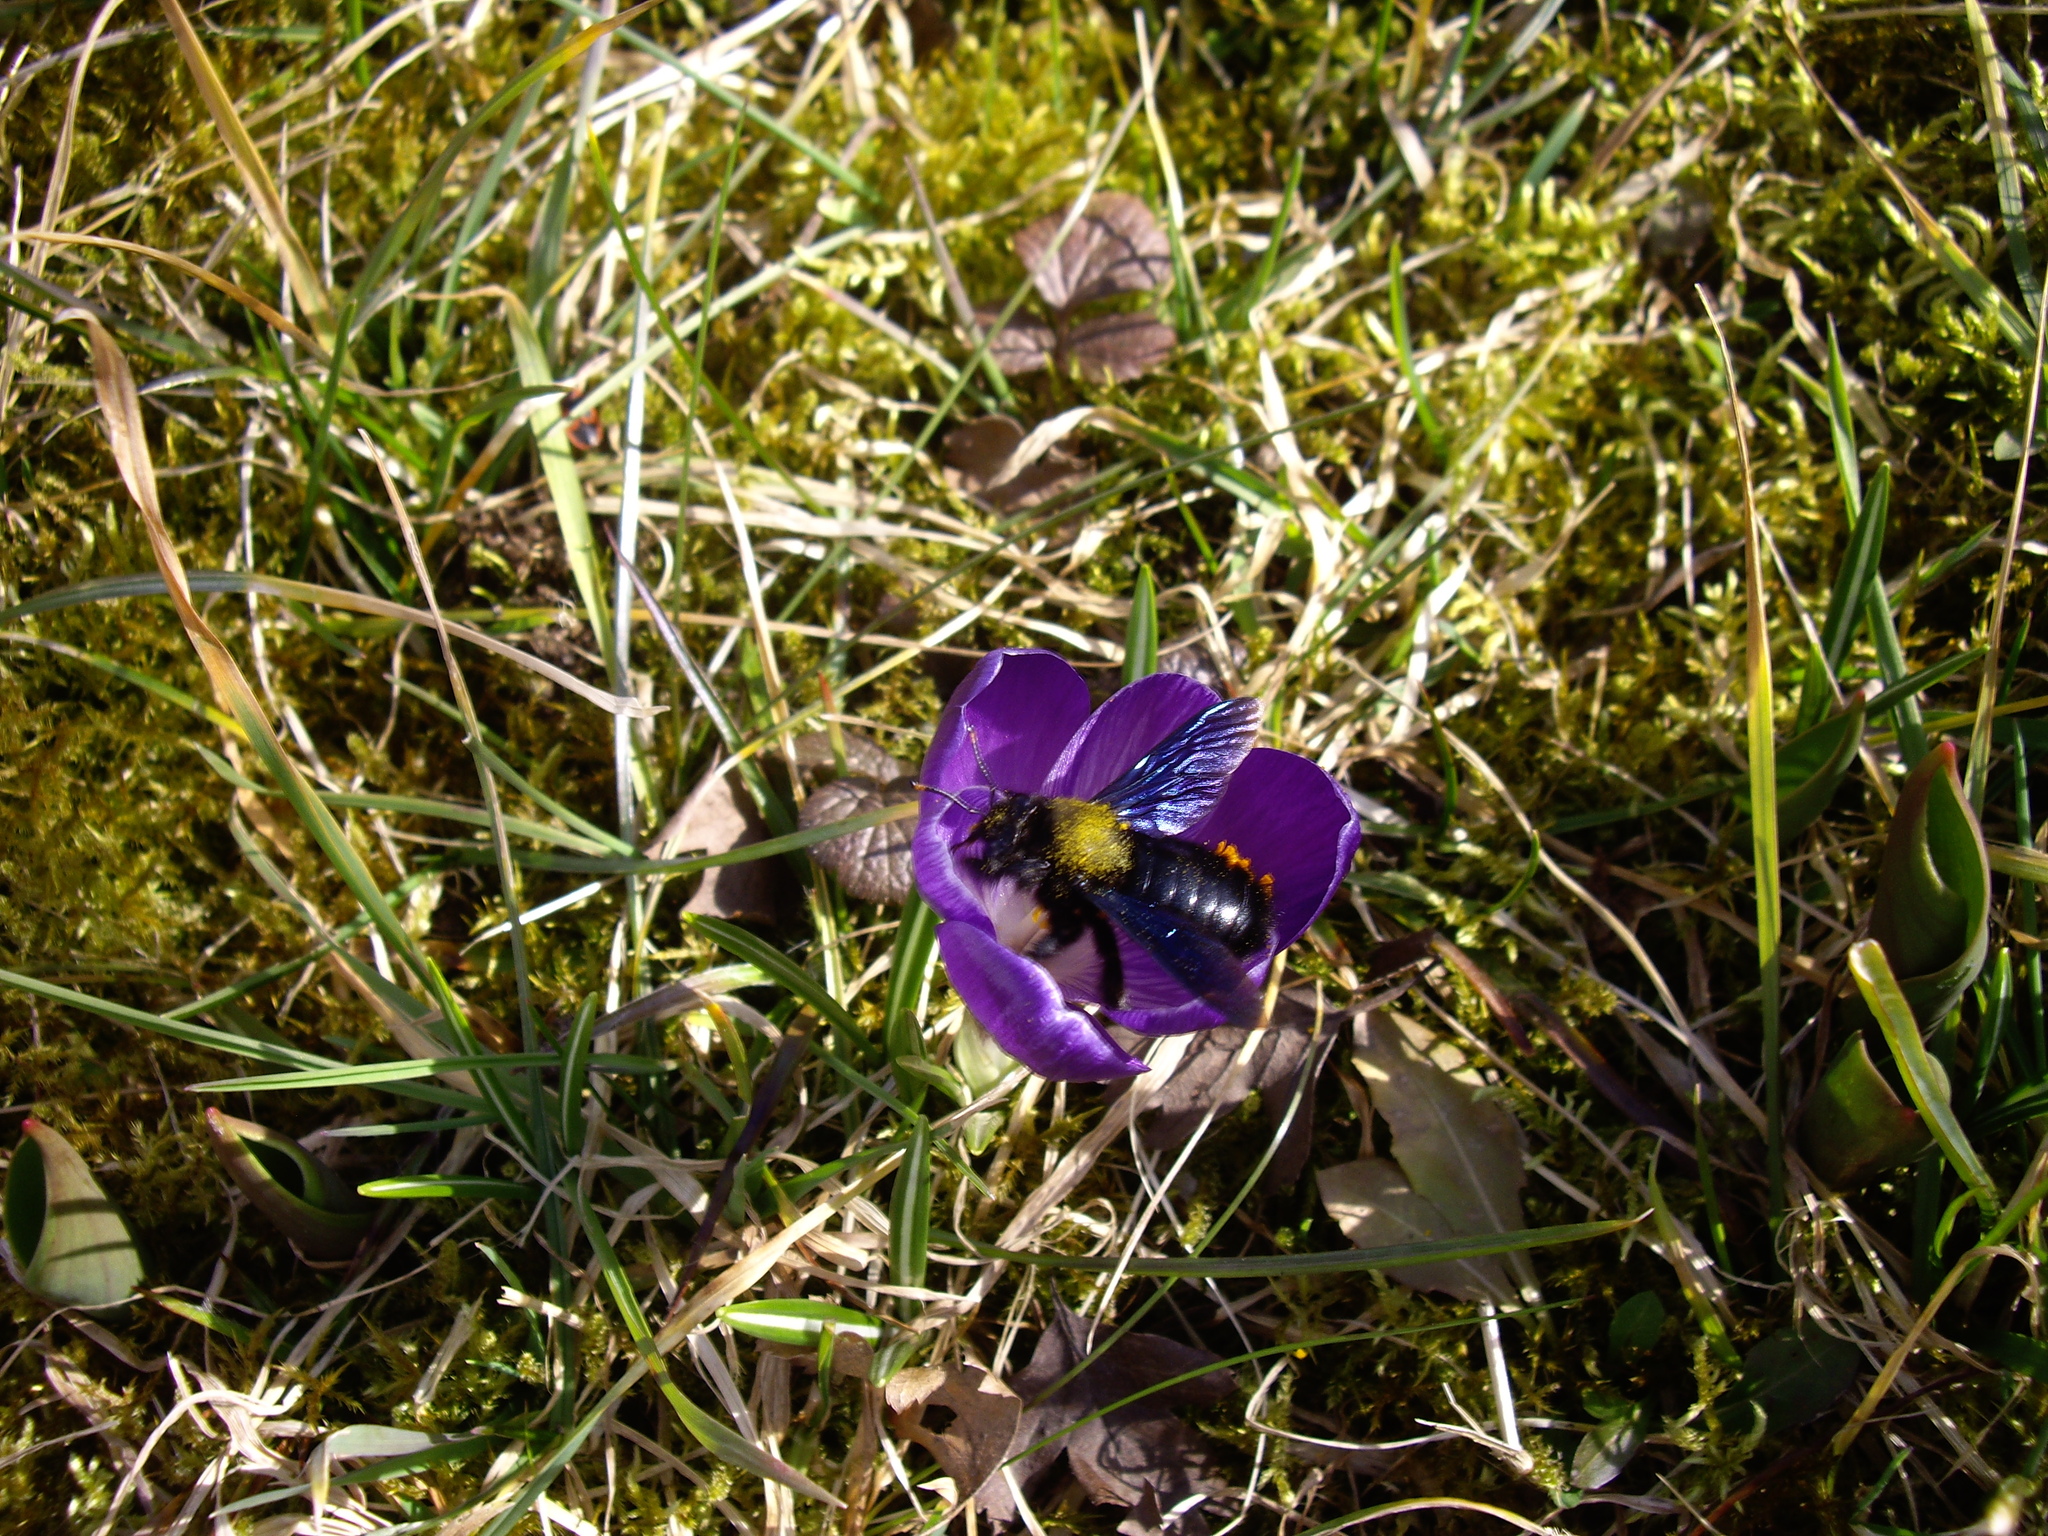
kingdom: Animalia
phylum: Arthropoda
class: Insecta
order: Hymenoptera
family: Apidae
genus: Xylocopa
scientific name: Xylocopa violacea
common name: Violet carpenter bee
